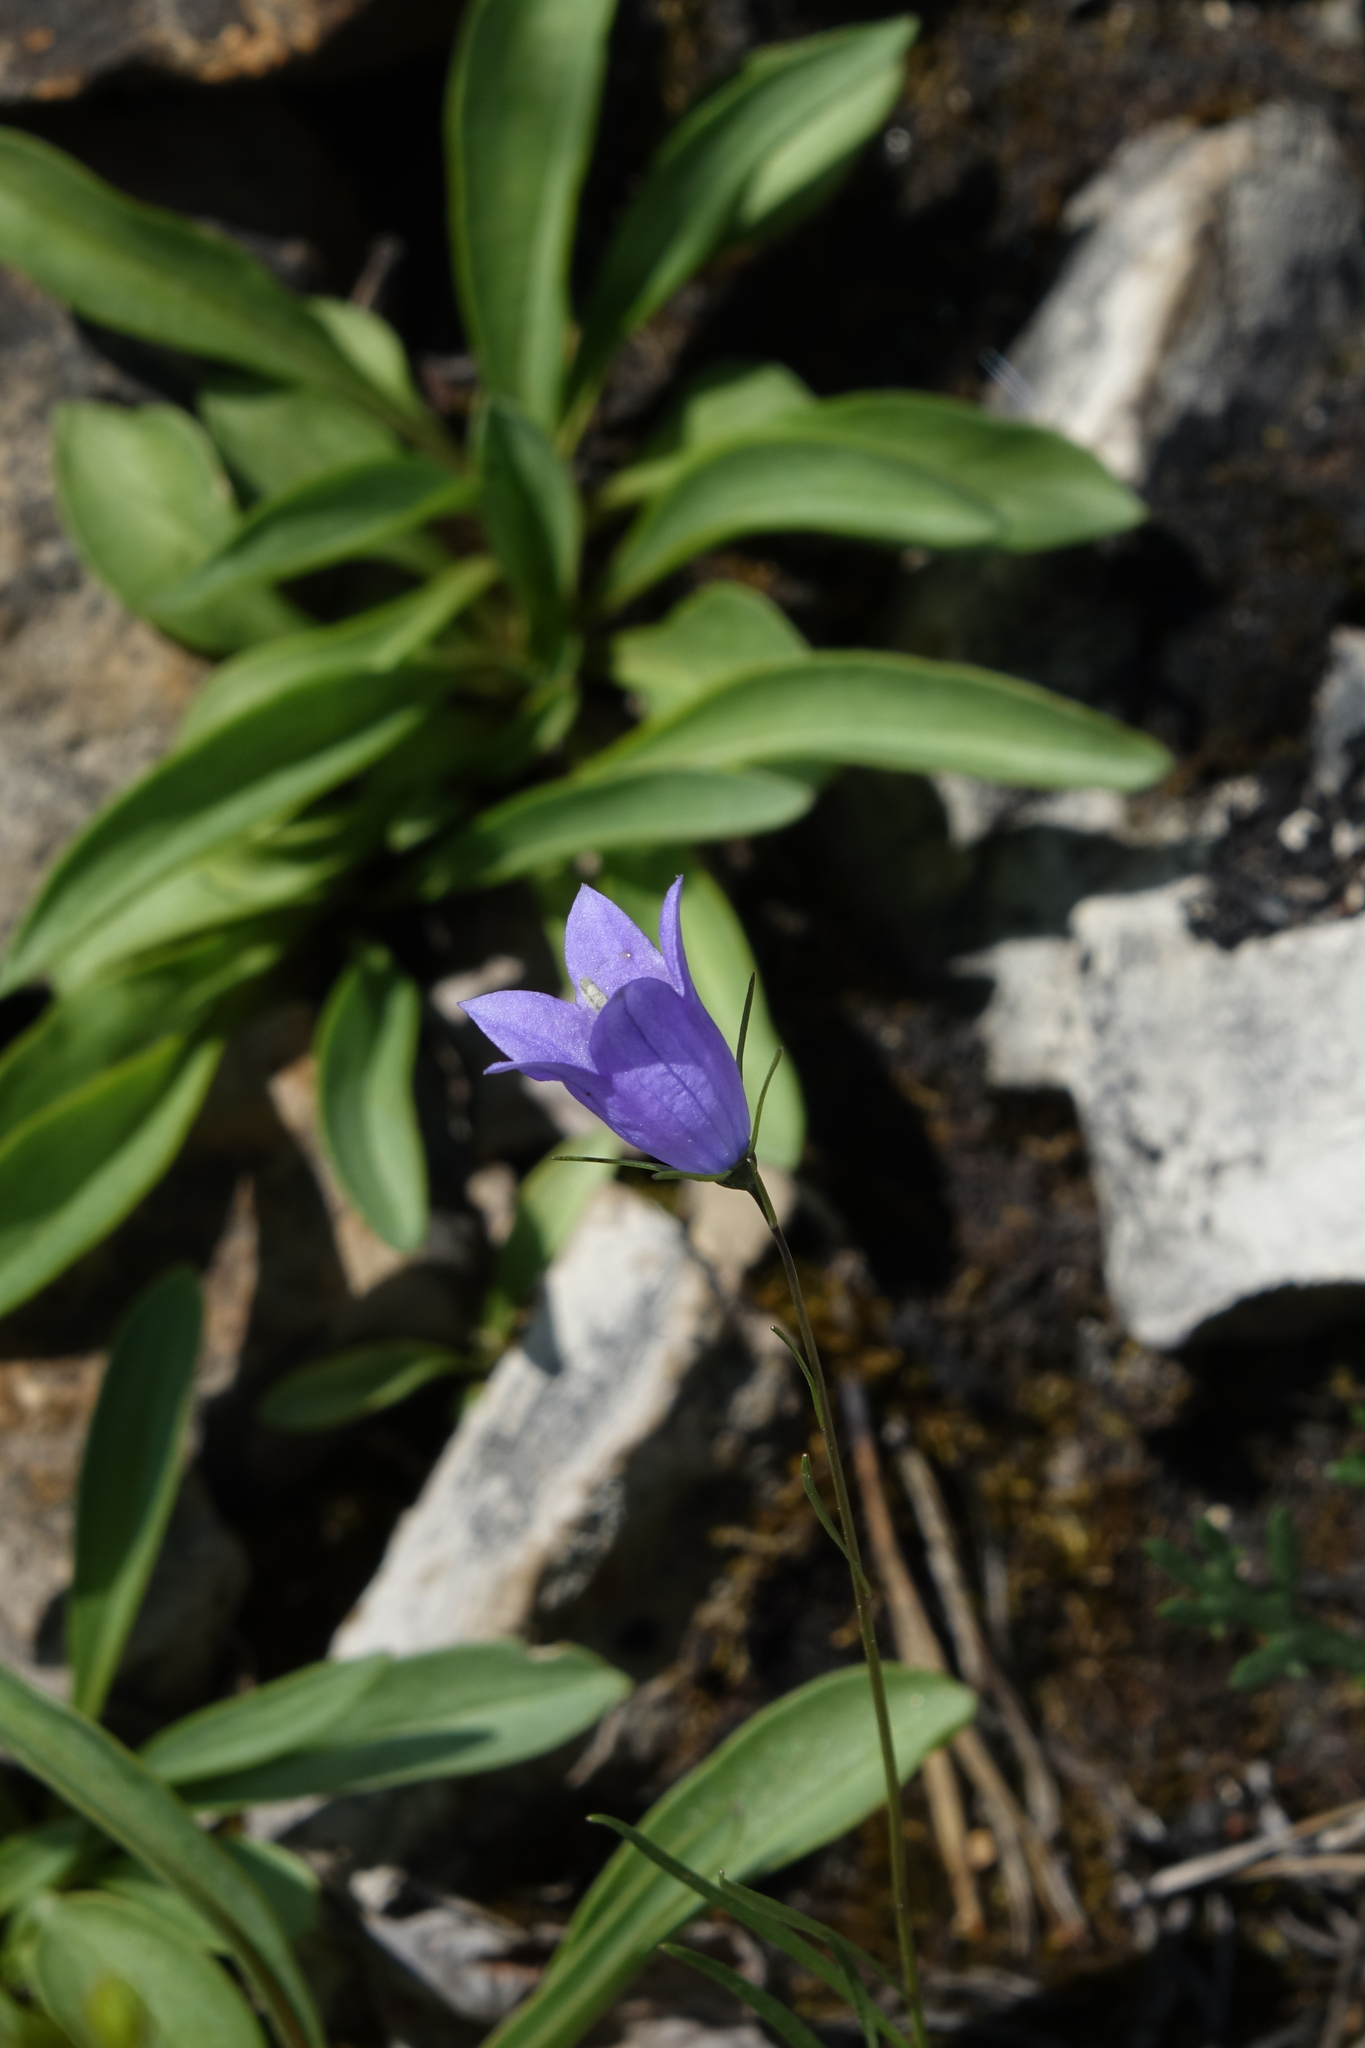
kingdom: Plantae
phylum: Tracheophyta
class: Magnoliopsida
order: Asterales
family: Campanulaceae
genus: Campanula
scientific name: Campanula rotundifolia
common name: Harebell
